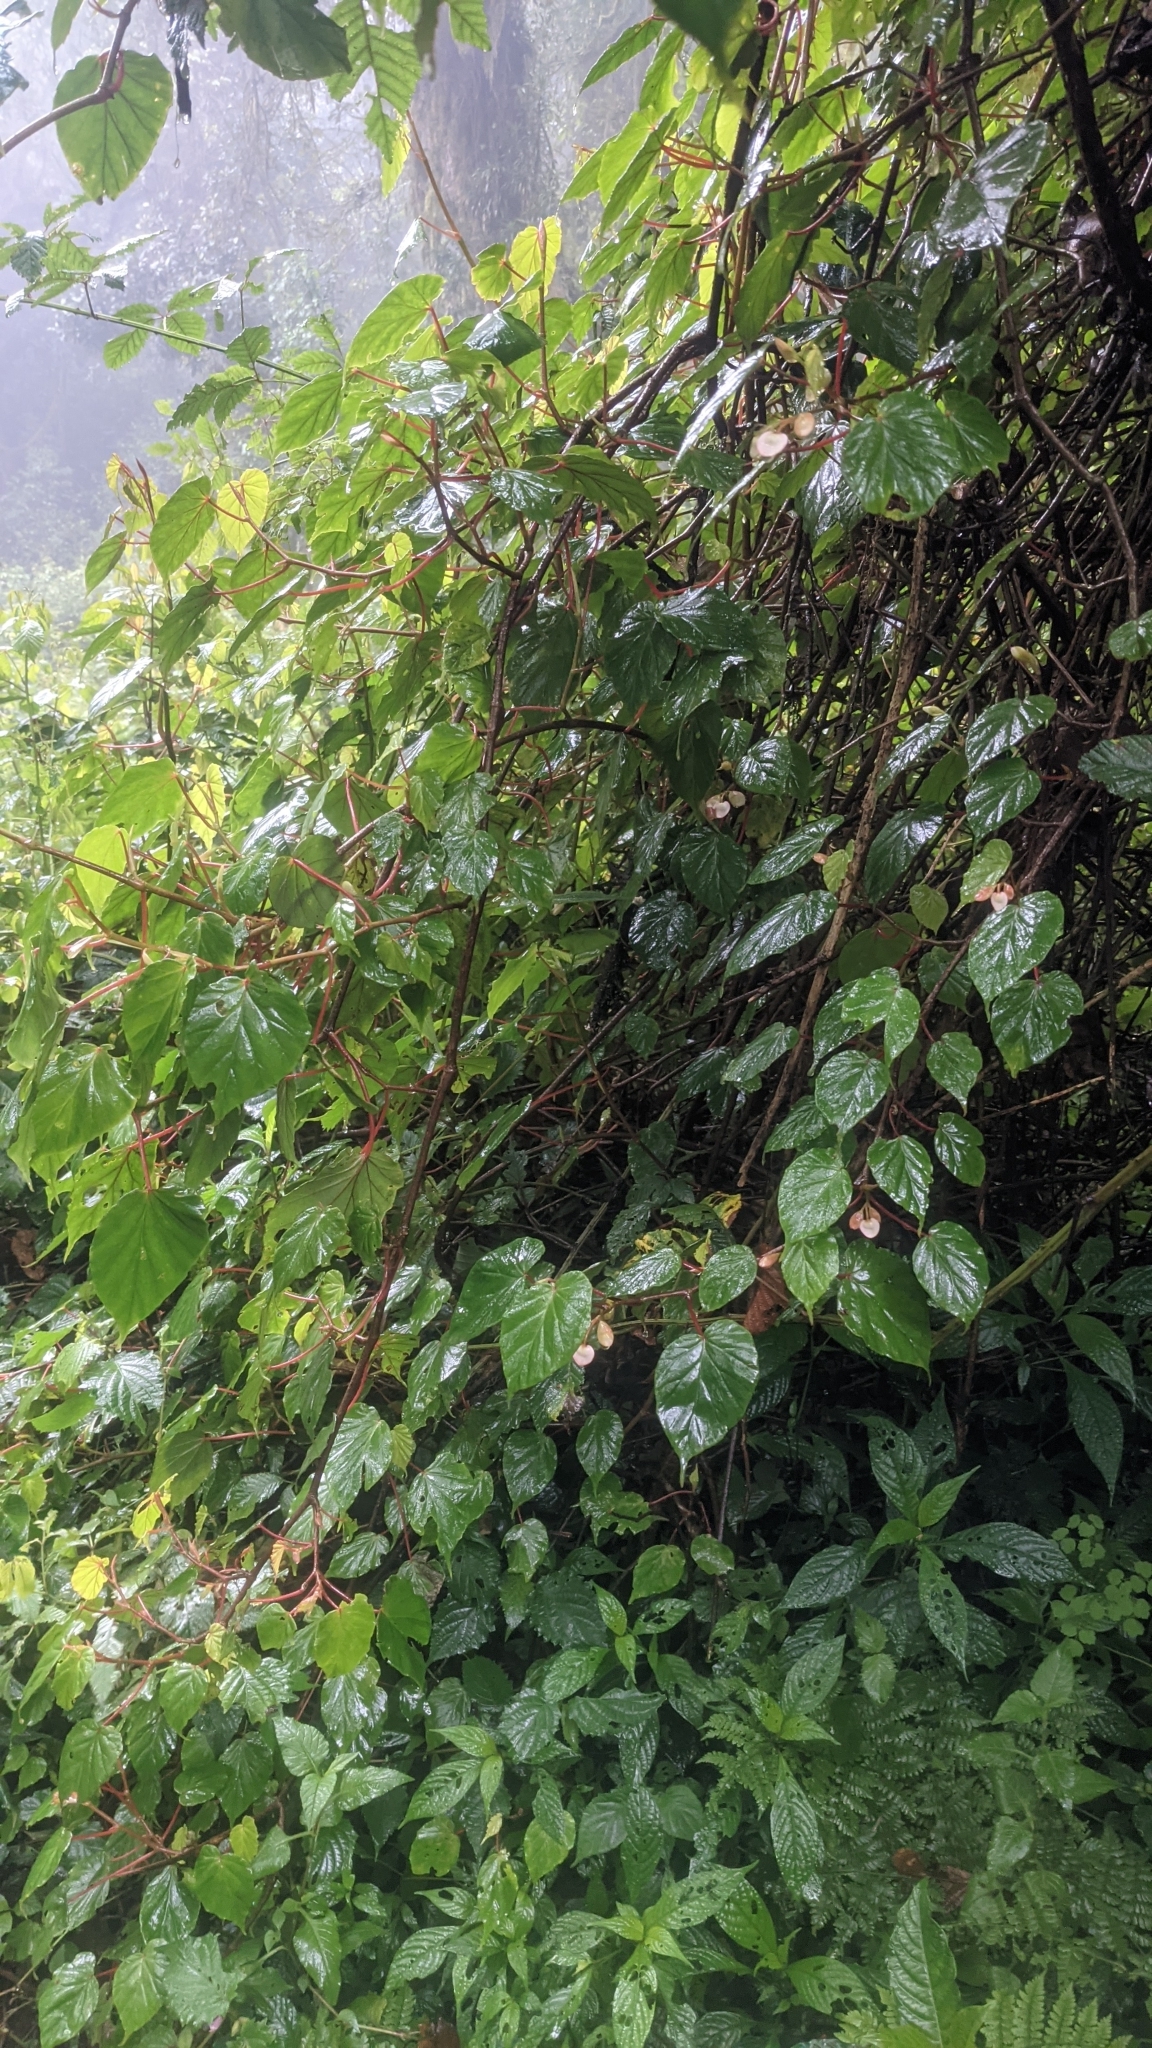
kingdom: Plantae
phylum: Tracheophyta
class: Magnoliopsida
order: Cucurbitales
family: Begoniaceae
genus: Begonia
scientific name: Begonia meyeri-johannis
